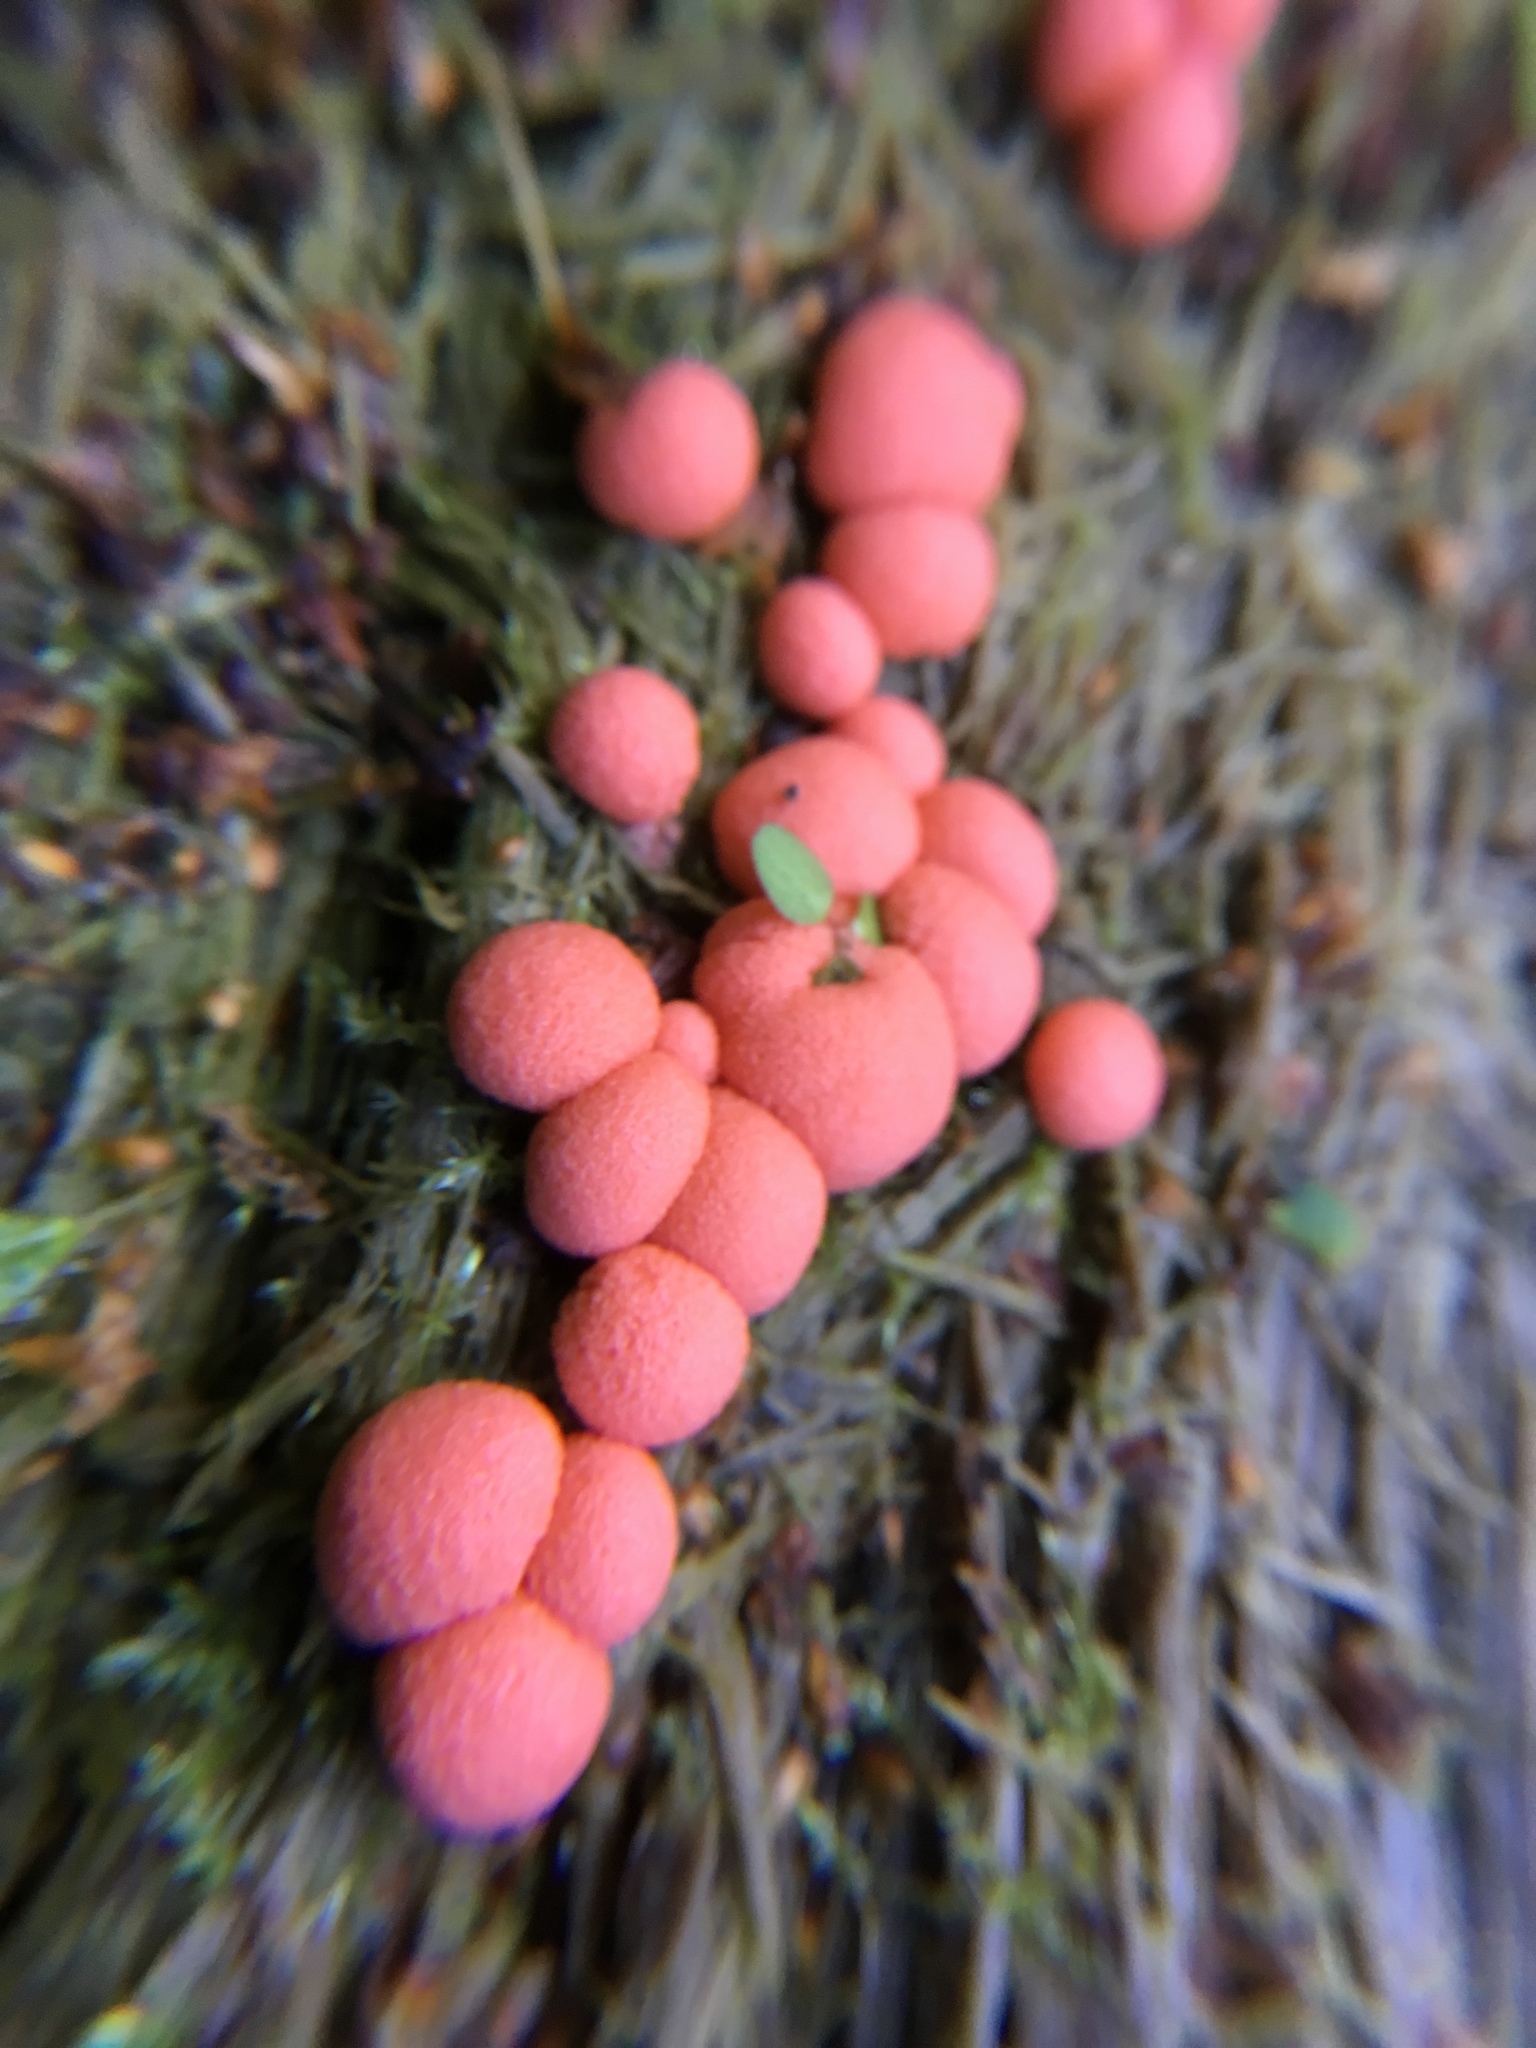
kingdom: Protozoa
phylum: Mycetozoa
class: Myxomycetes
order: Cribrariales
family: Tubiferaceae
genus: Lycogala
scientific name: Lycogala epidendrum
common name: Wolf's milk
